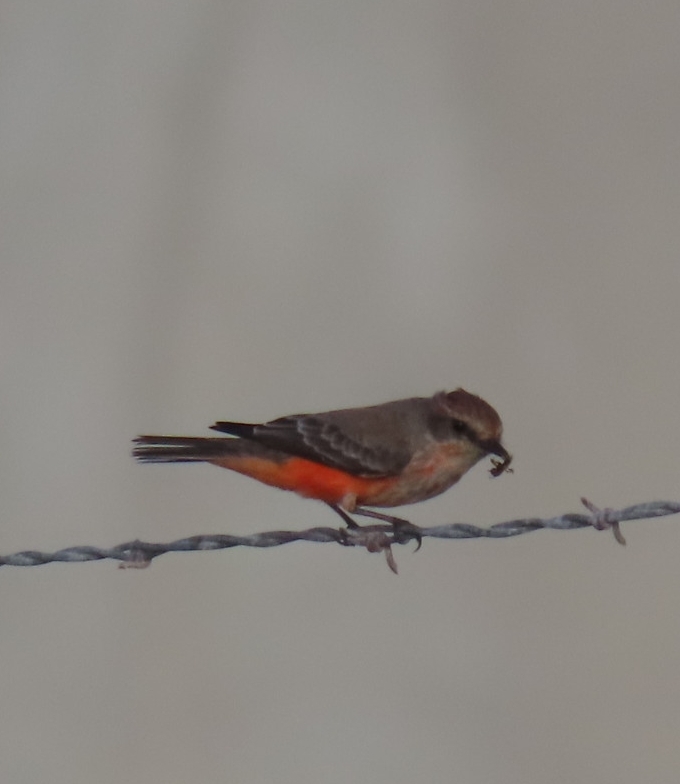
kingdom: Animalia
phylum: Chordata
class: Aves
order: Passeriformes
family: Tyrannidae
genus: Pyrocephalus
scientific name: Pyrocephalus rubinus
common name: Vermilion flycatcher
